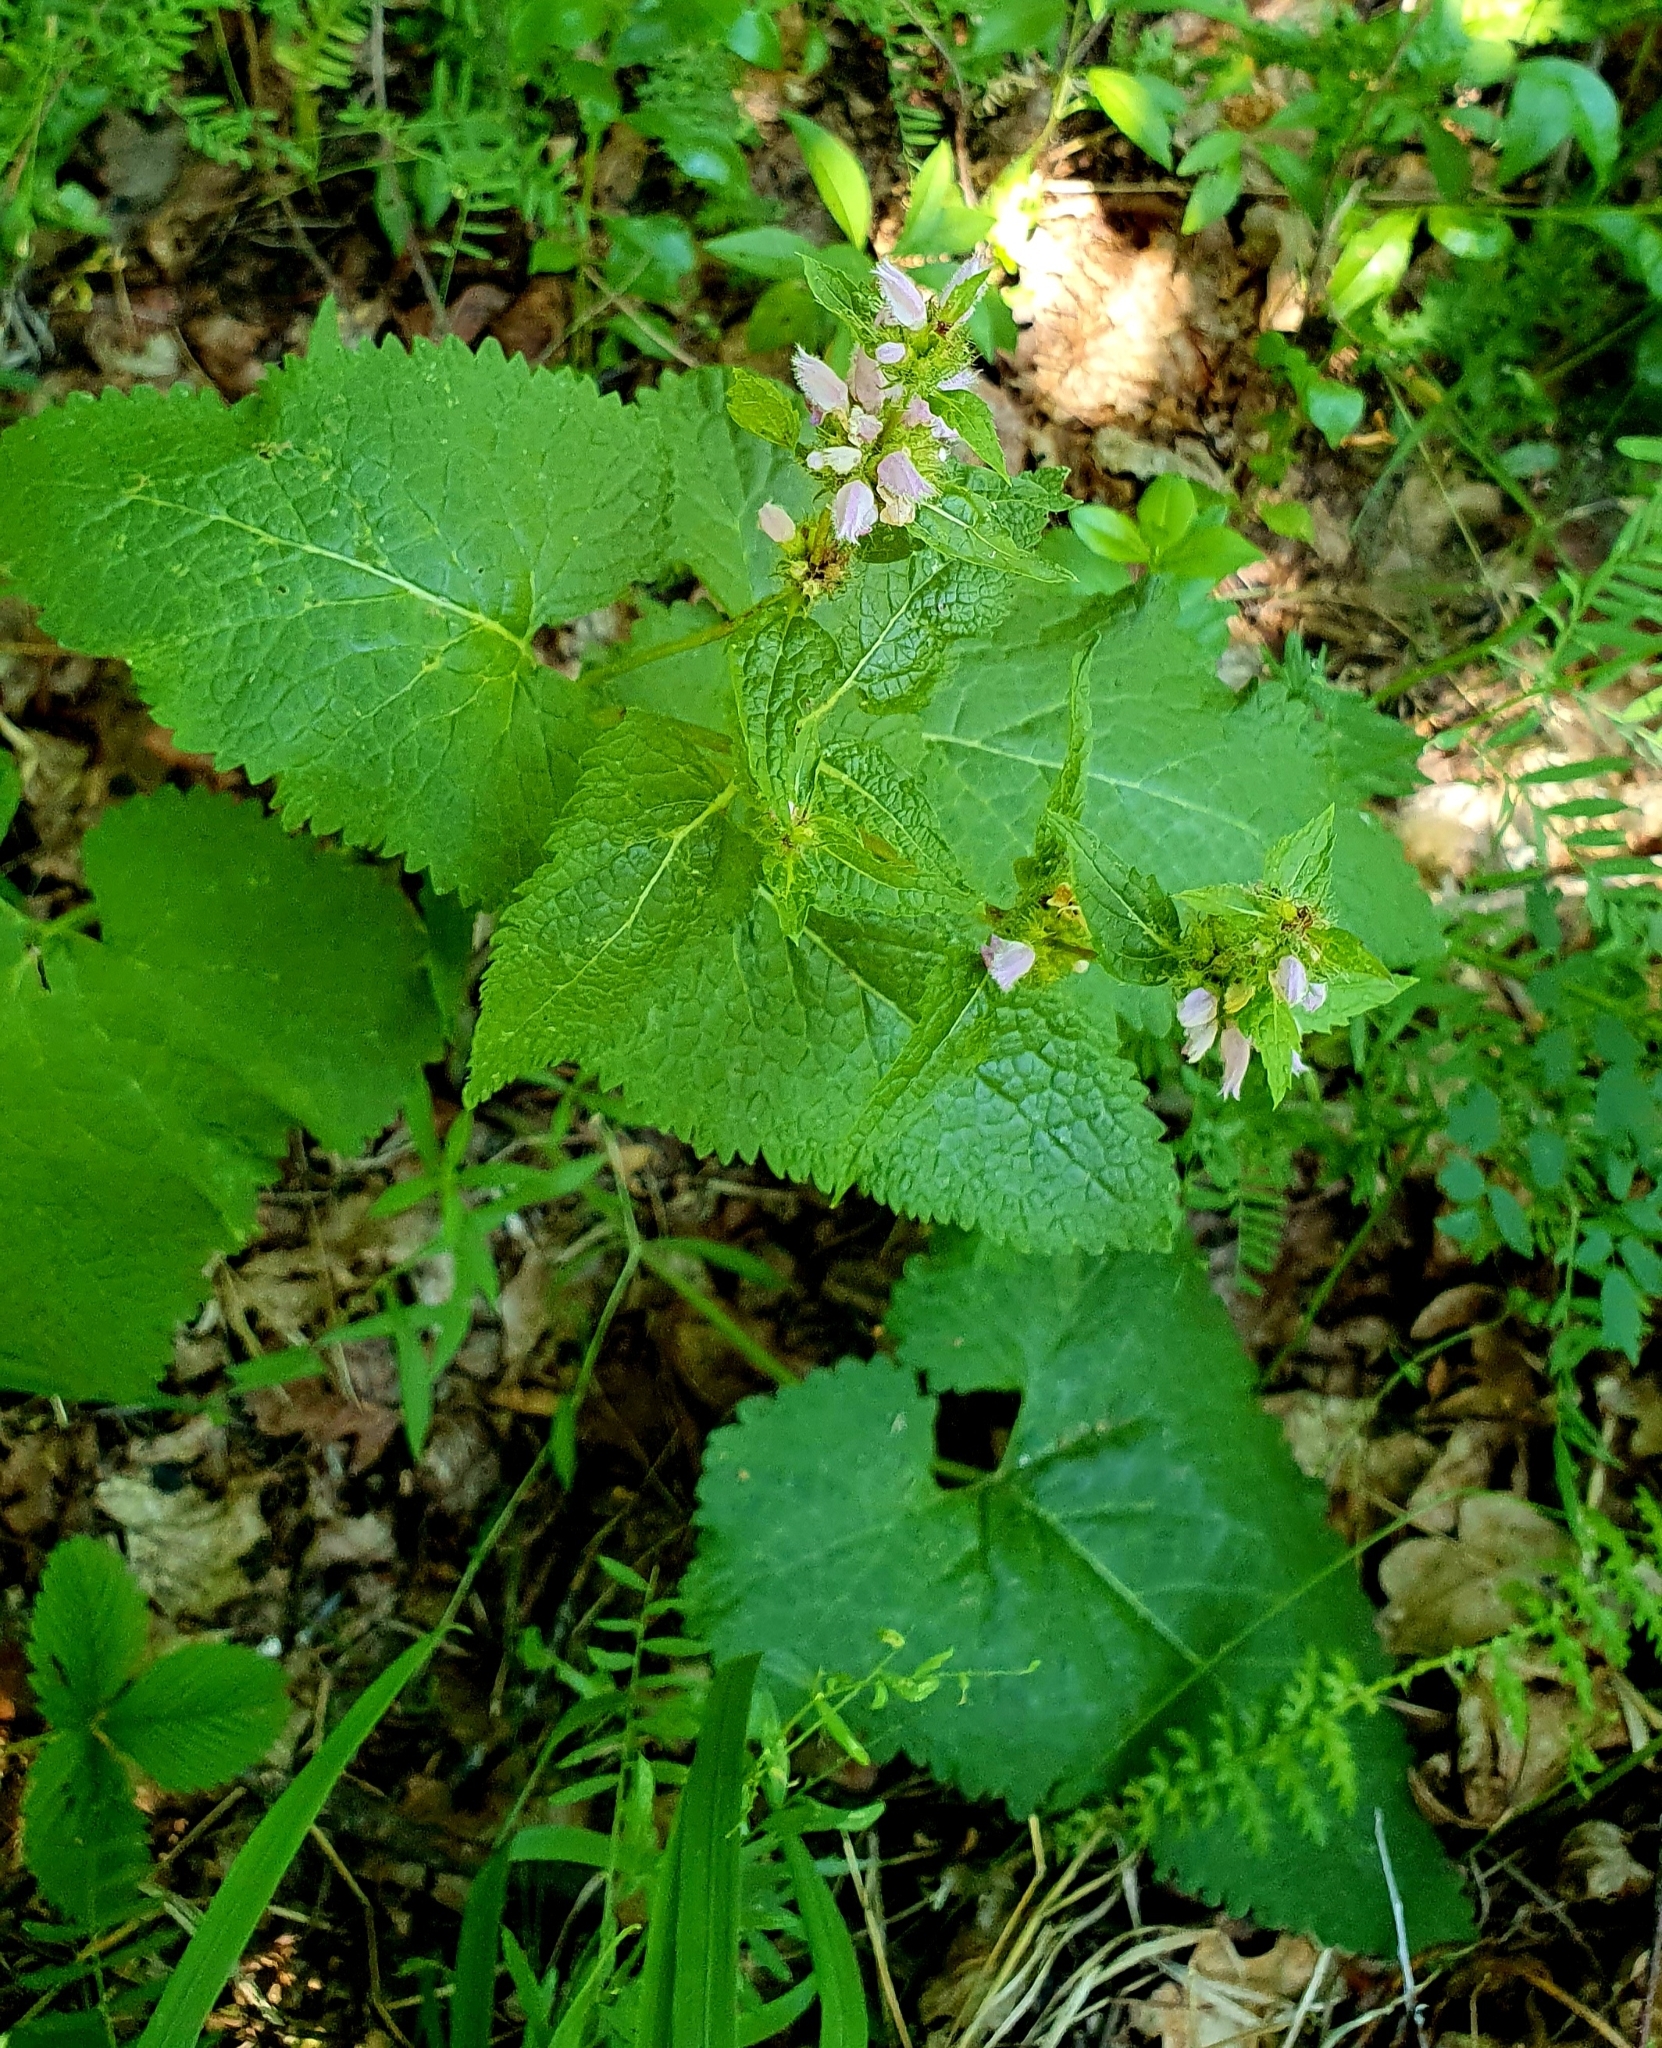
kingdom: Plantae
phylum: Tracheophyta
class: Magnoliopsida
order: Lamiales
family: Lamiaceae
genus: Phlomoides
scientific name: Phlomoides tuberosa
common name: Tuberous jerusalem sage
